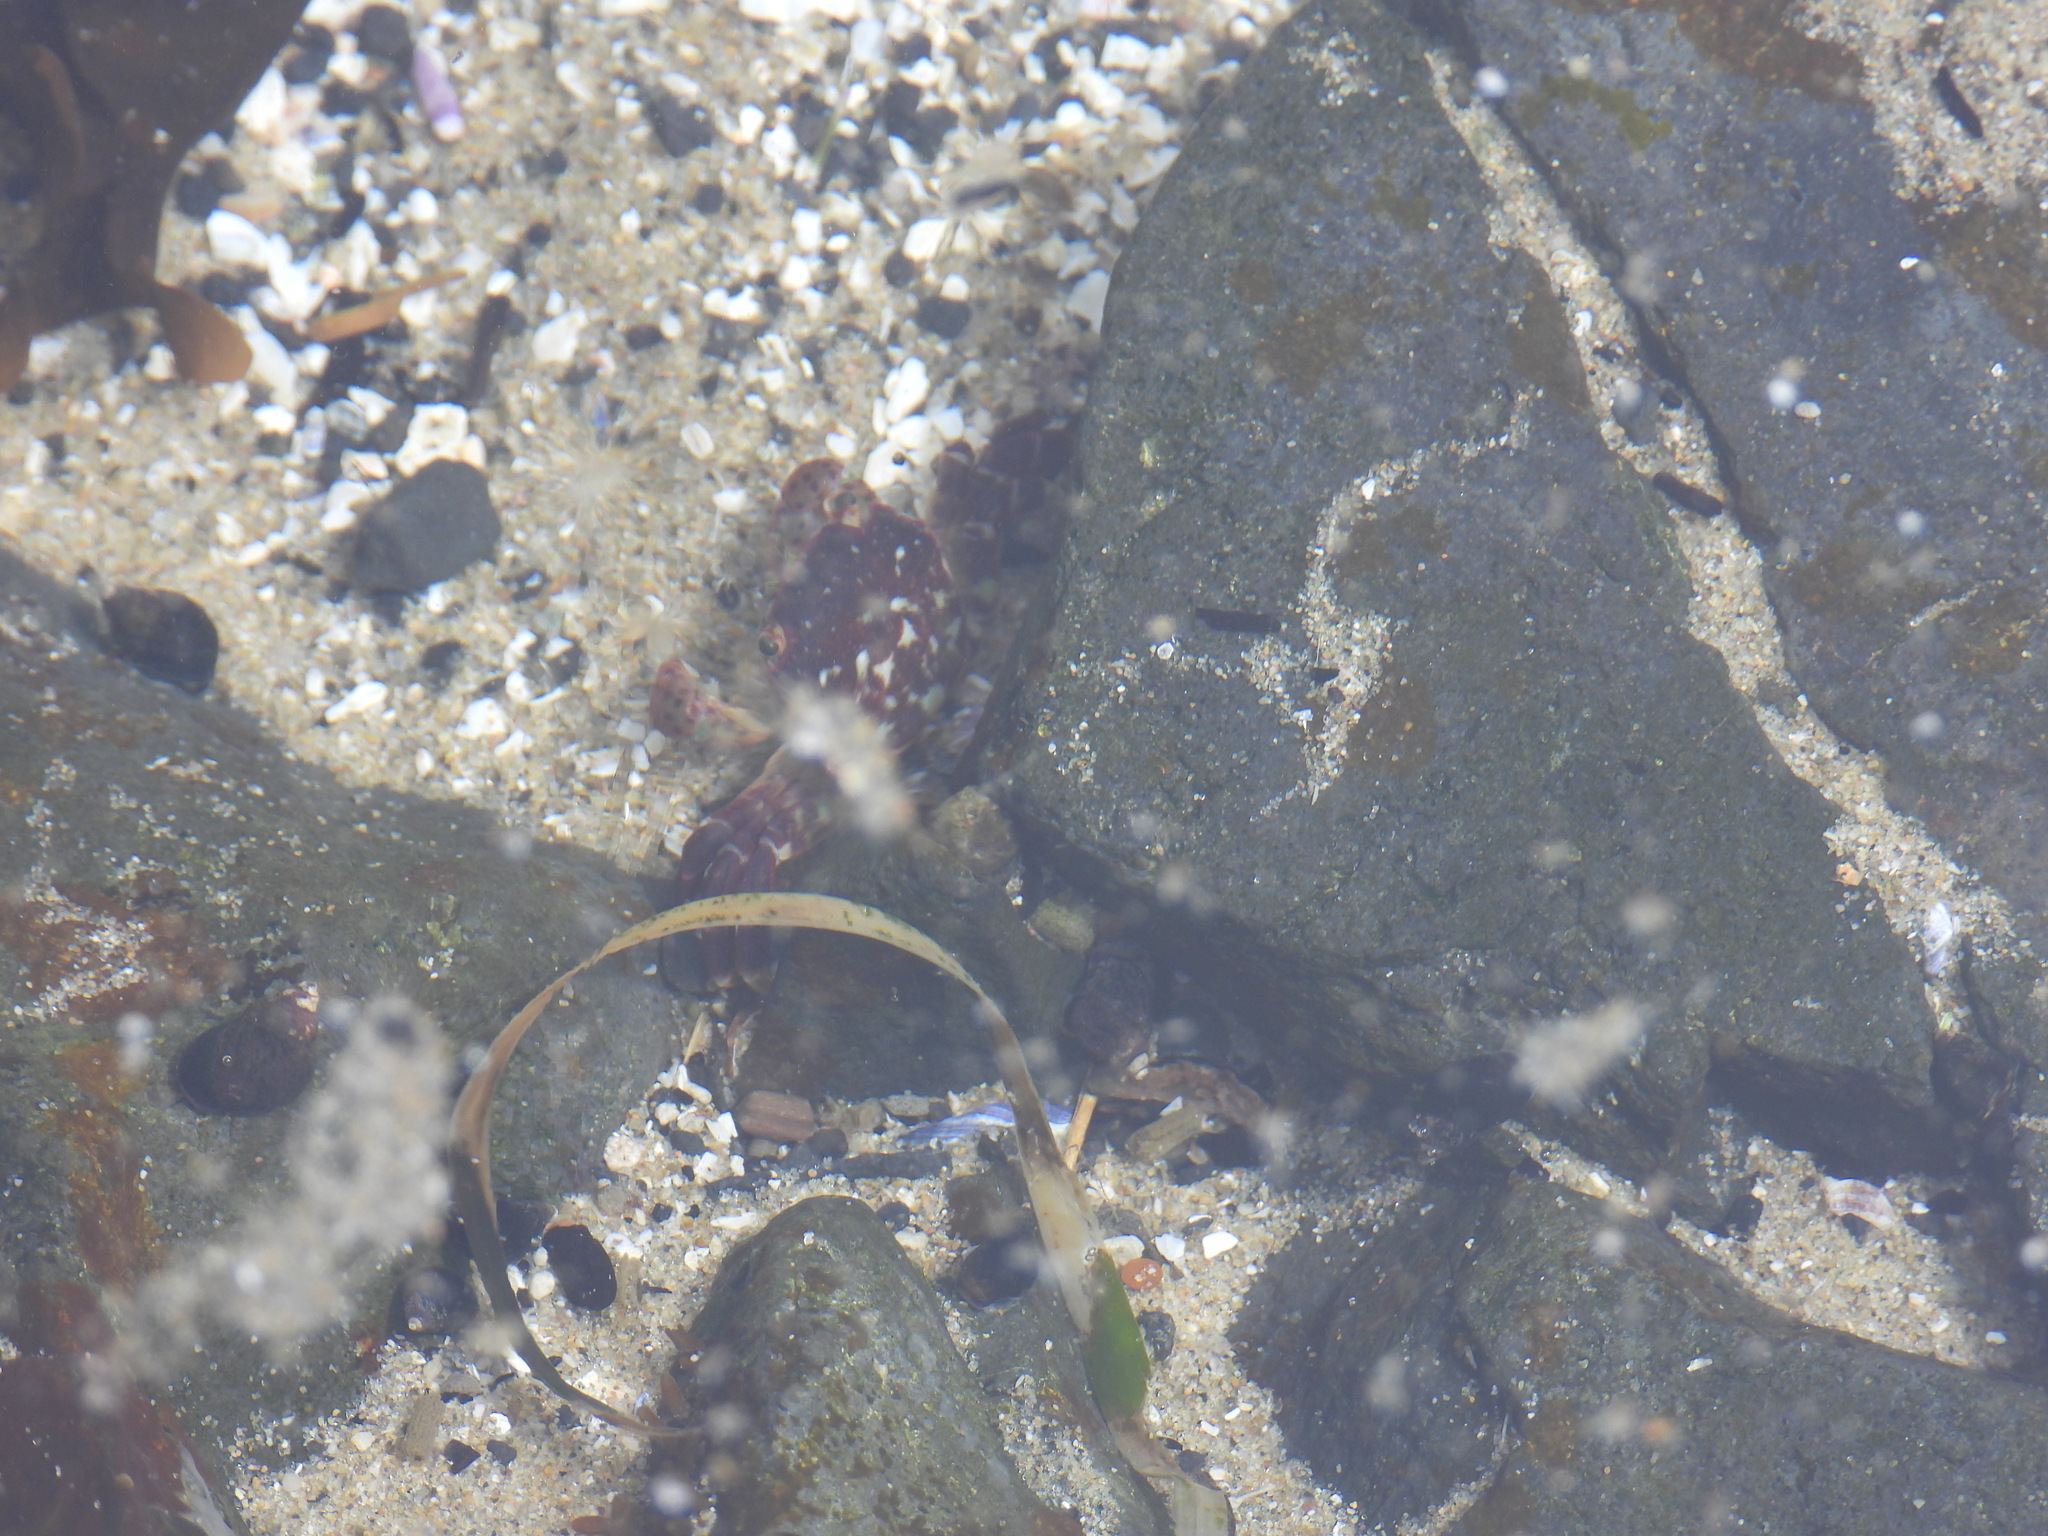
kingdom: Animalia
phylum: Arthropoda
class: Malacostraca
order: Decapoda
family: Varunidae
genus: Hemigrapsus
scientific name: Hemigrapsus nudus
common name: Purple shore crab
